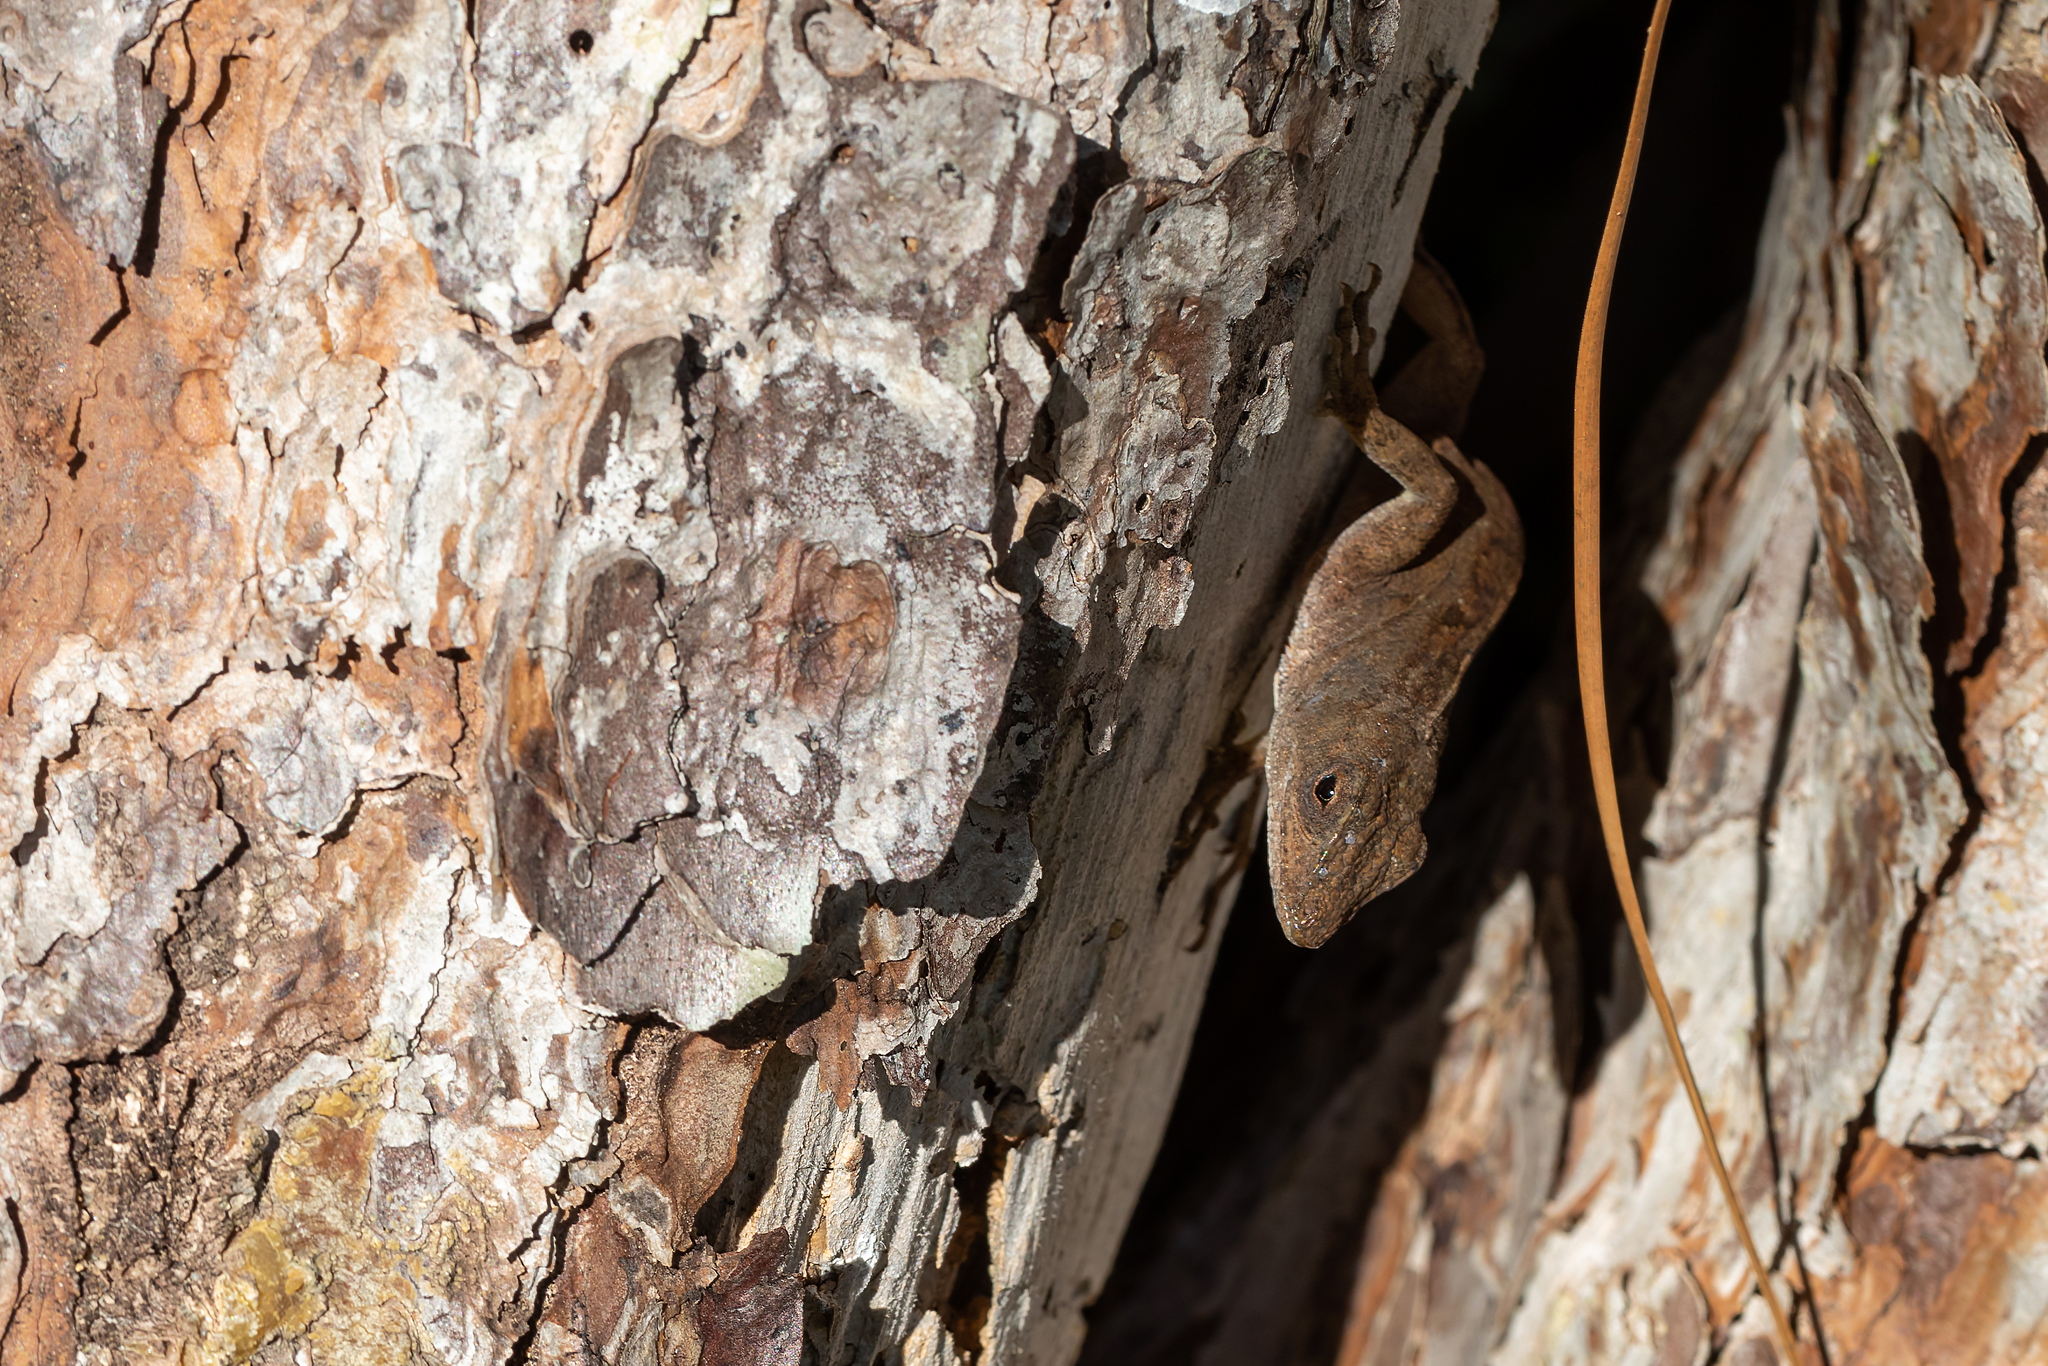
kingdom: Animalia
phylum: Chordata
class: Squamata
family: Dactyloidae
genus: Anolis
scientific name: Anolis sagrei
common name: Brown anole
